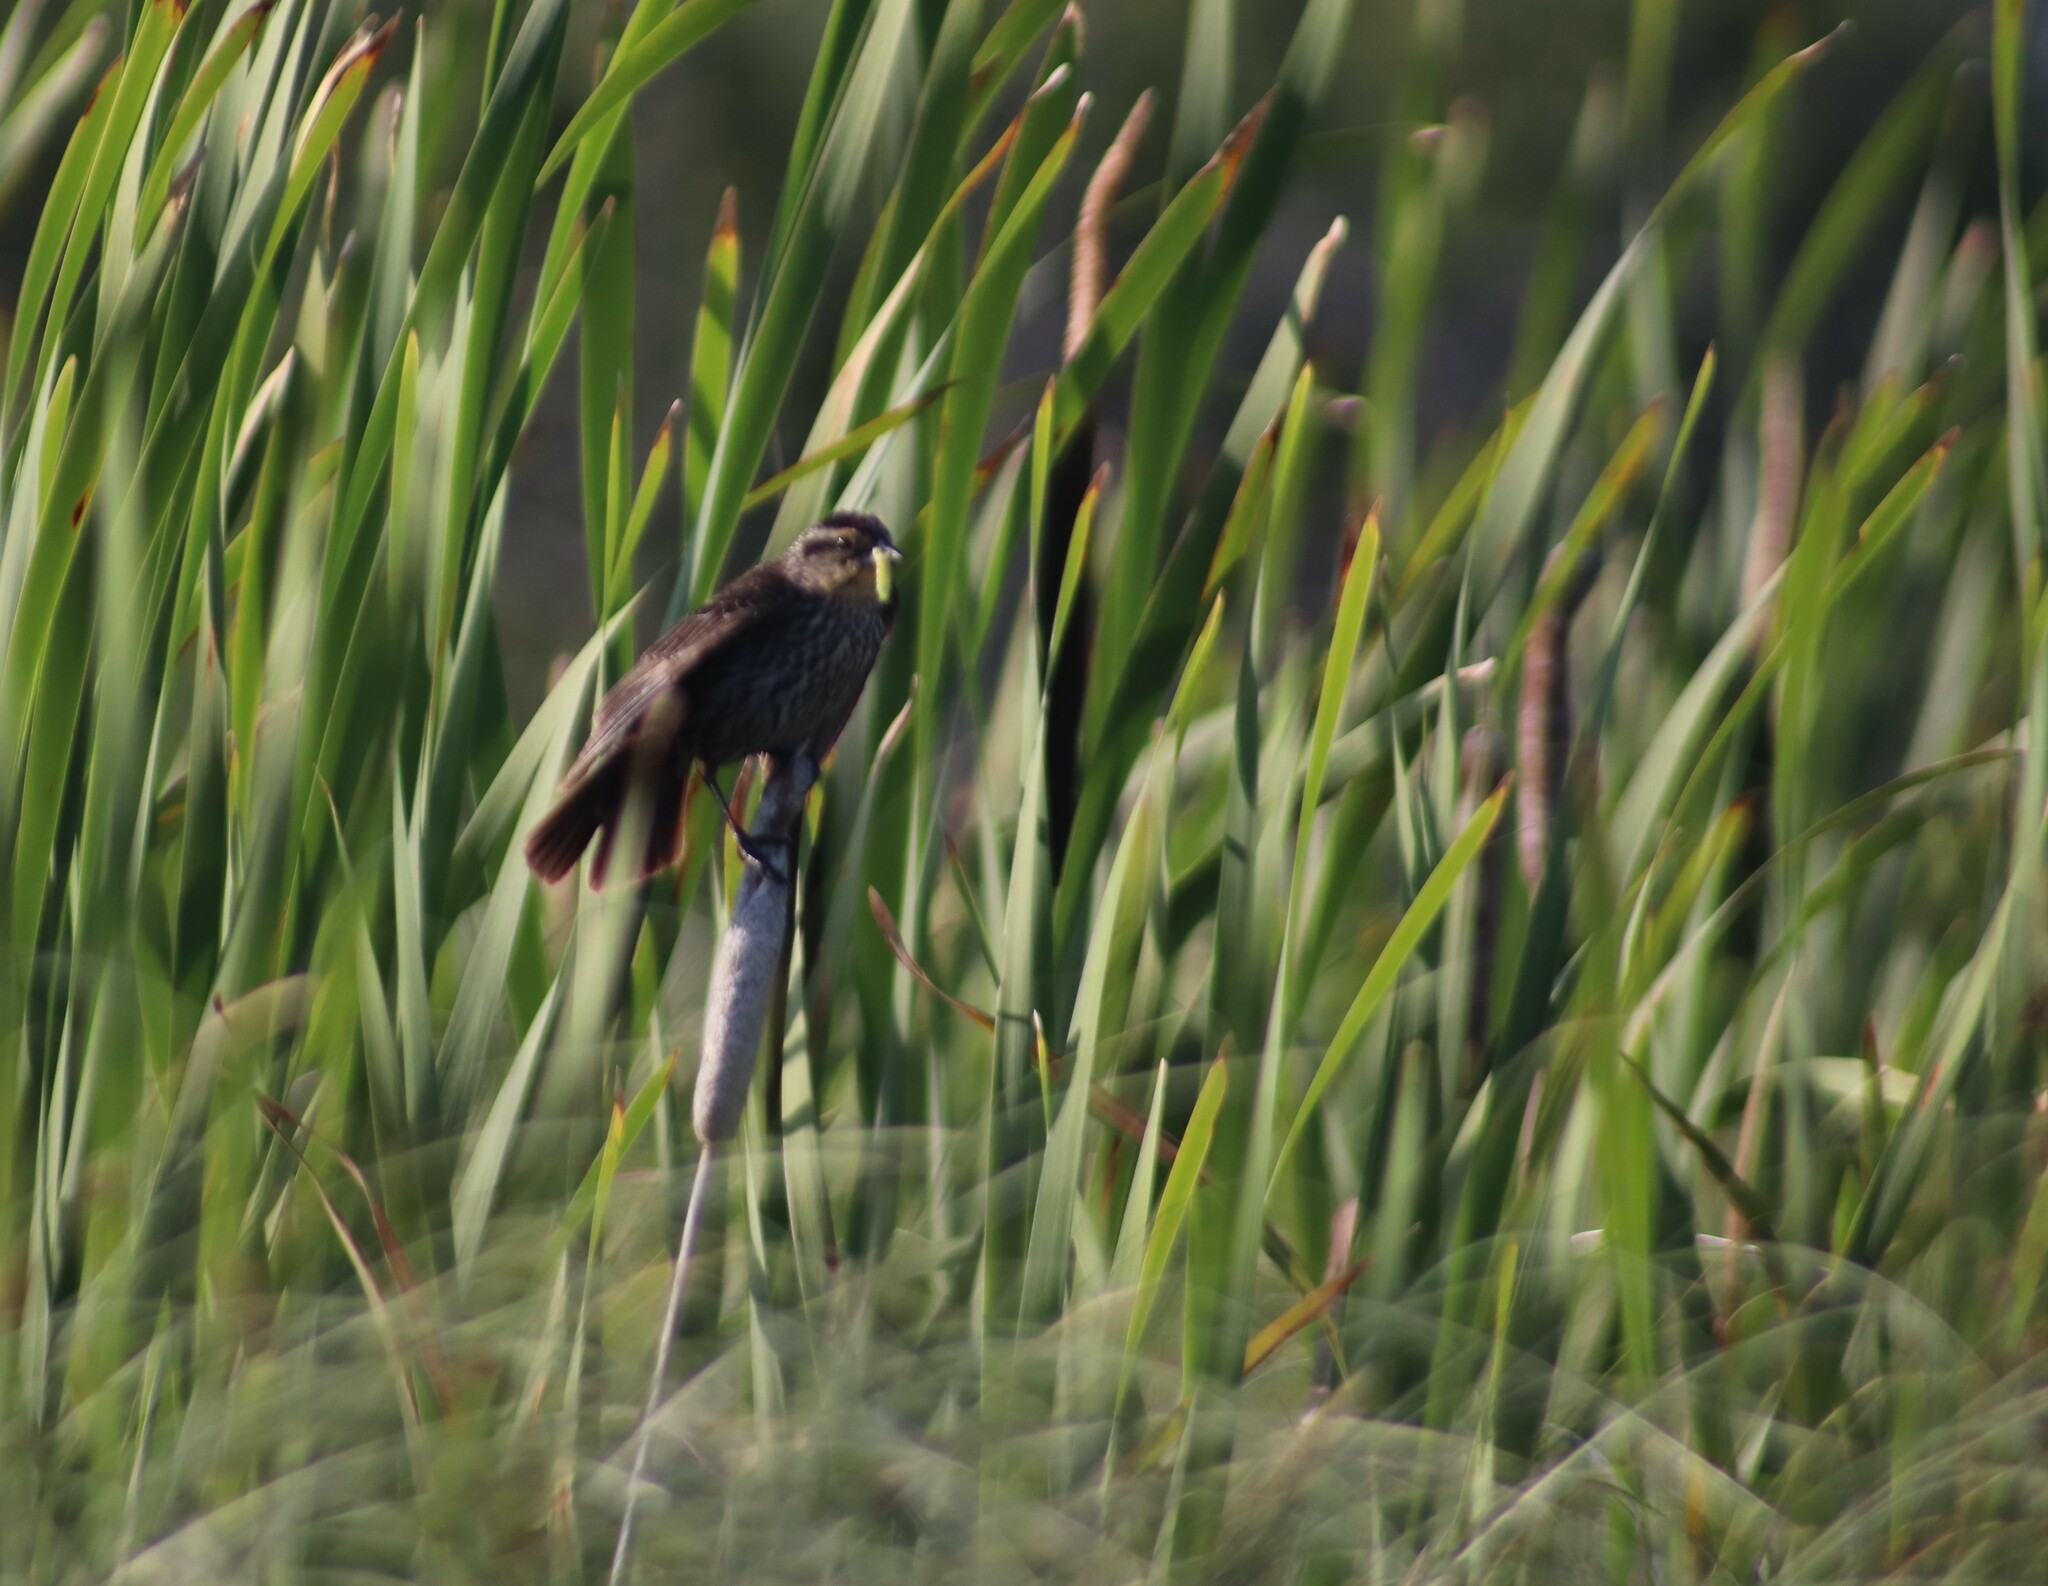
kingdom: Animalia
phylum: Chordata
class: Aves
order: Passeriformes
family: Icteridae
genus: Agelaius
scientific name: Agelaius phoeniceus
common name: Red-winged blackbird
